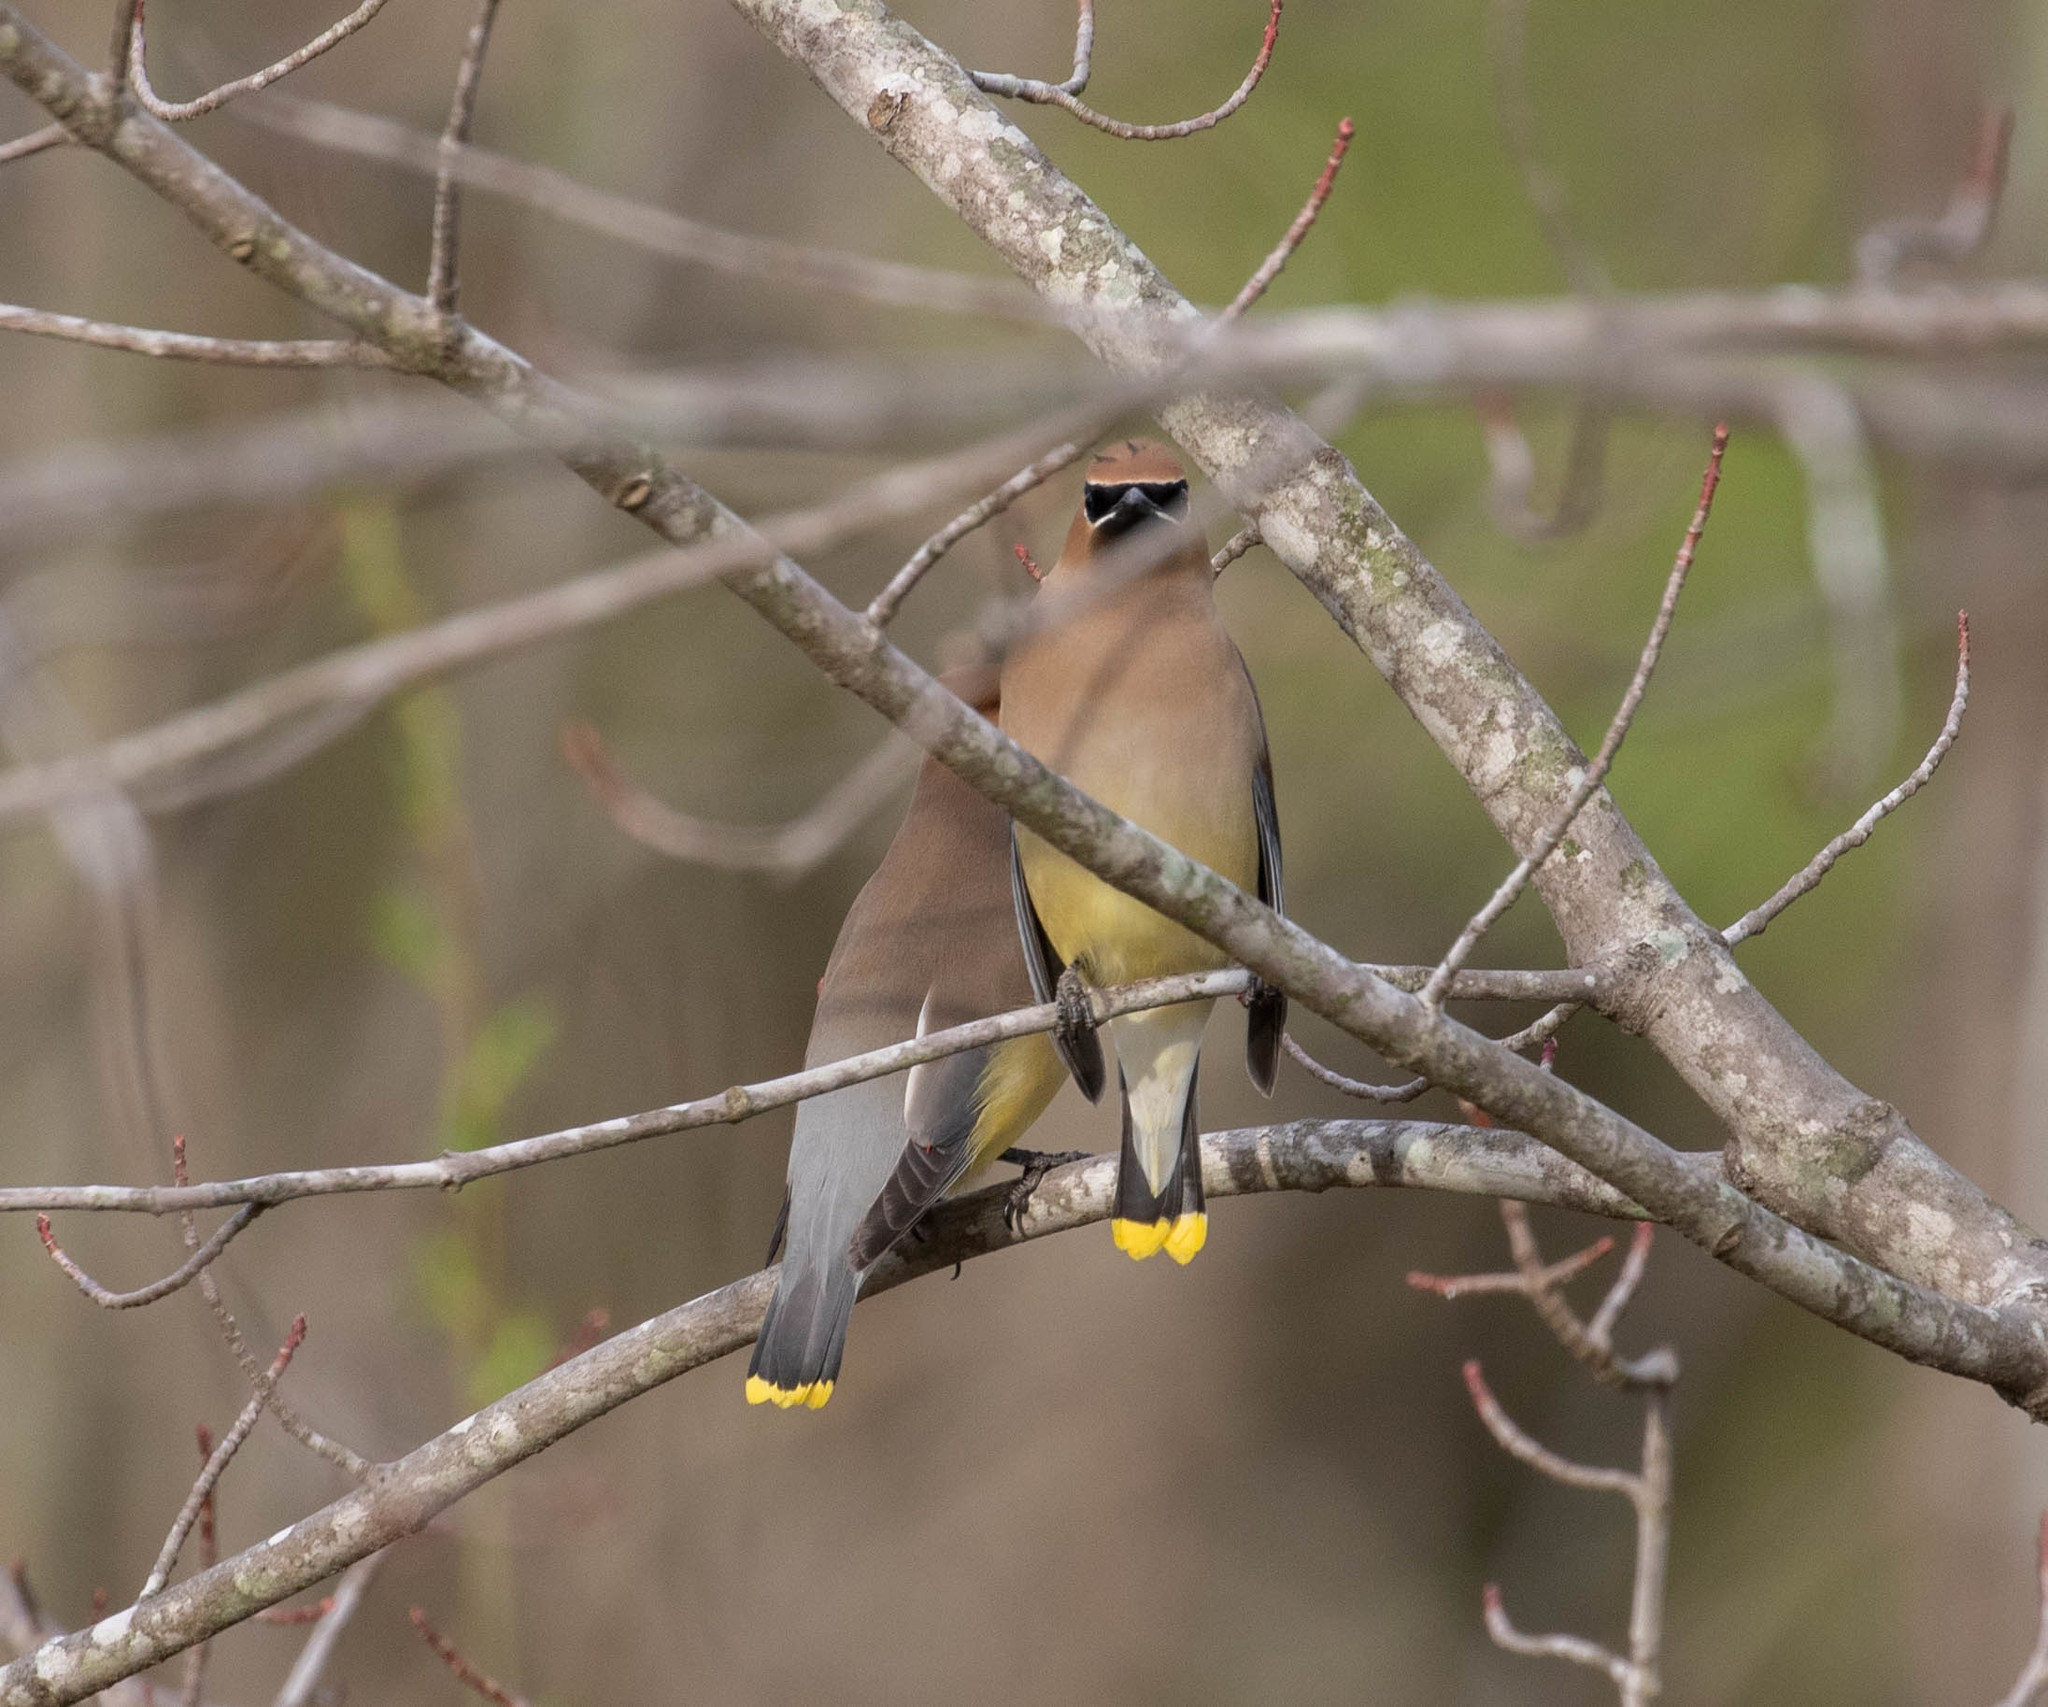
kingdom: Animalia
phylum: Chordata
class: Aves
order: Passeriformes
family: Bombycillidae
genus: Bombycilla
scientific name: Bombycilla cedrorum
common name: Cedar waxwing
